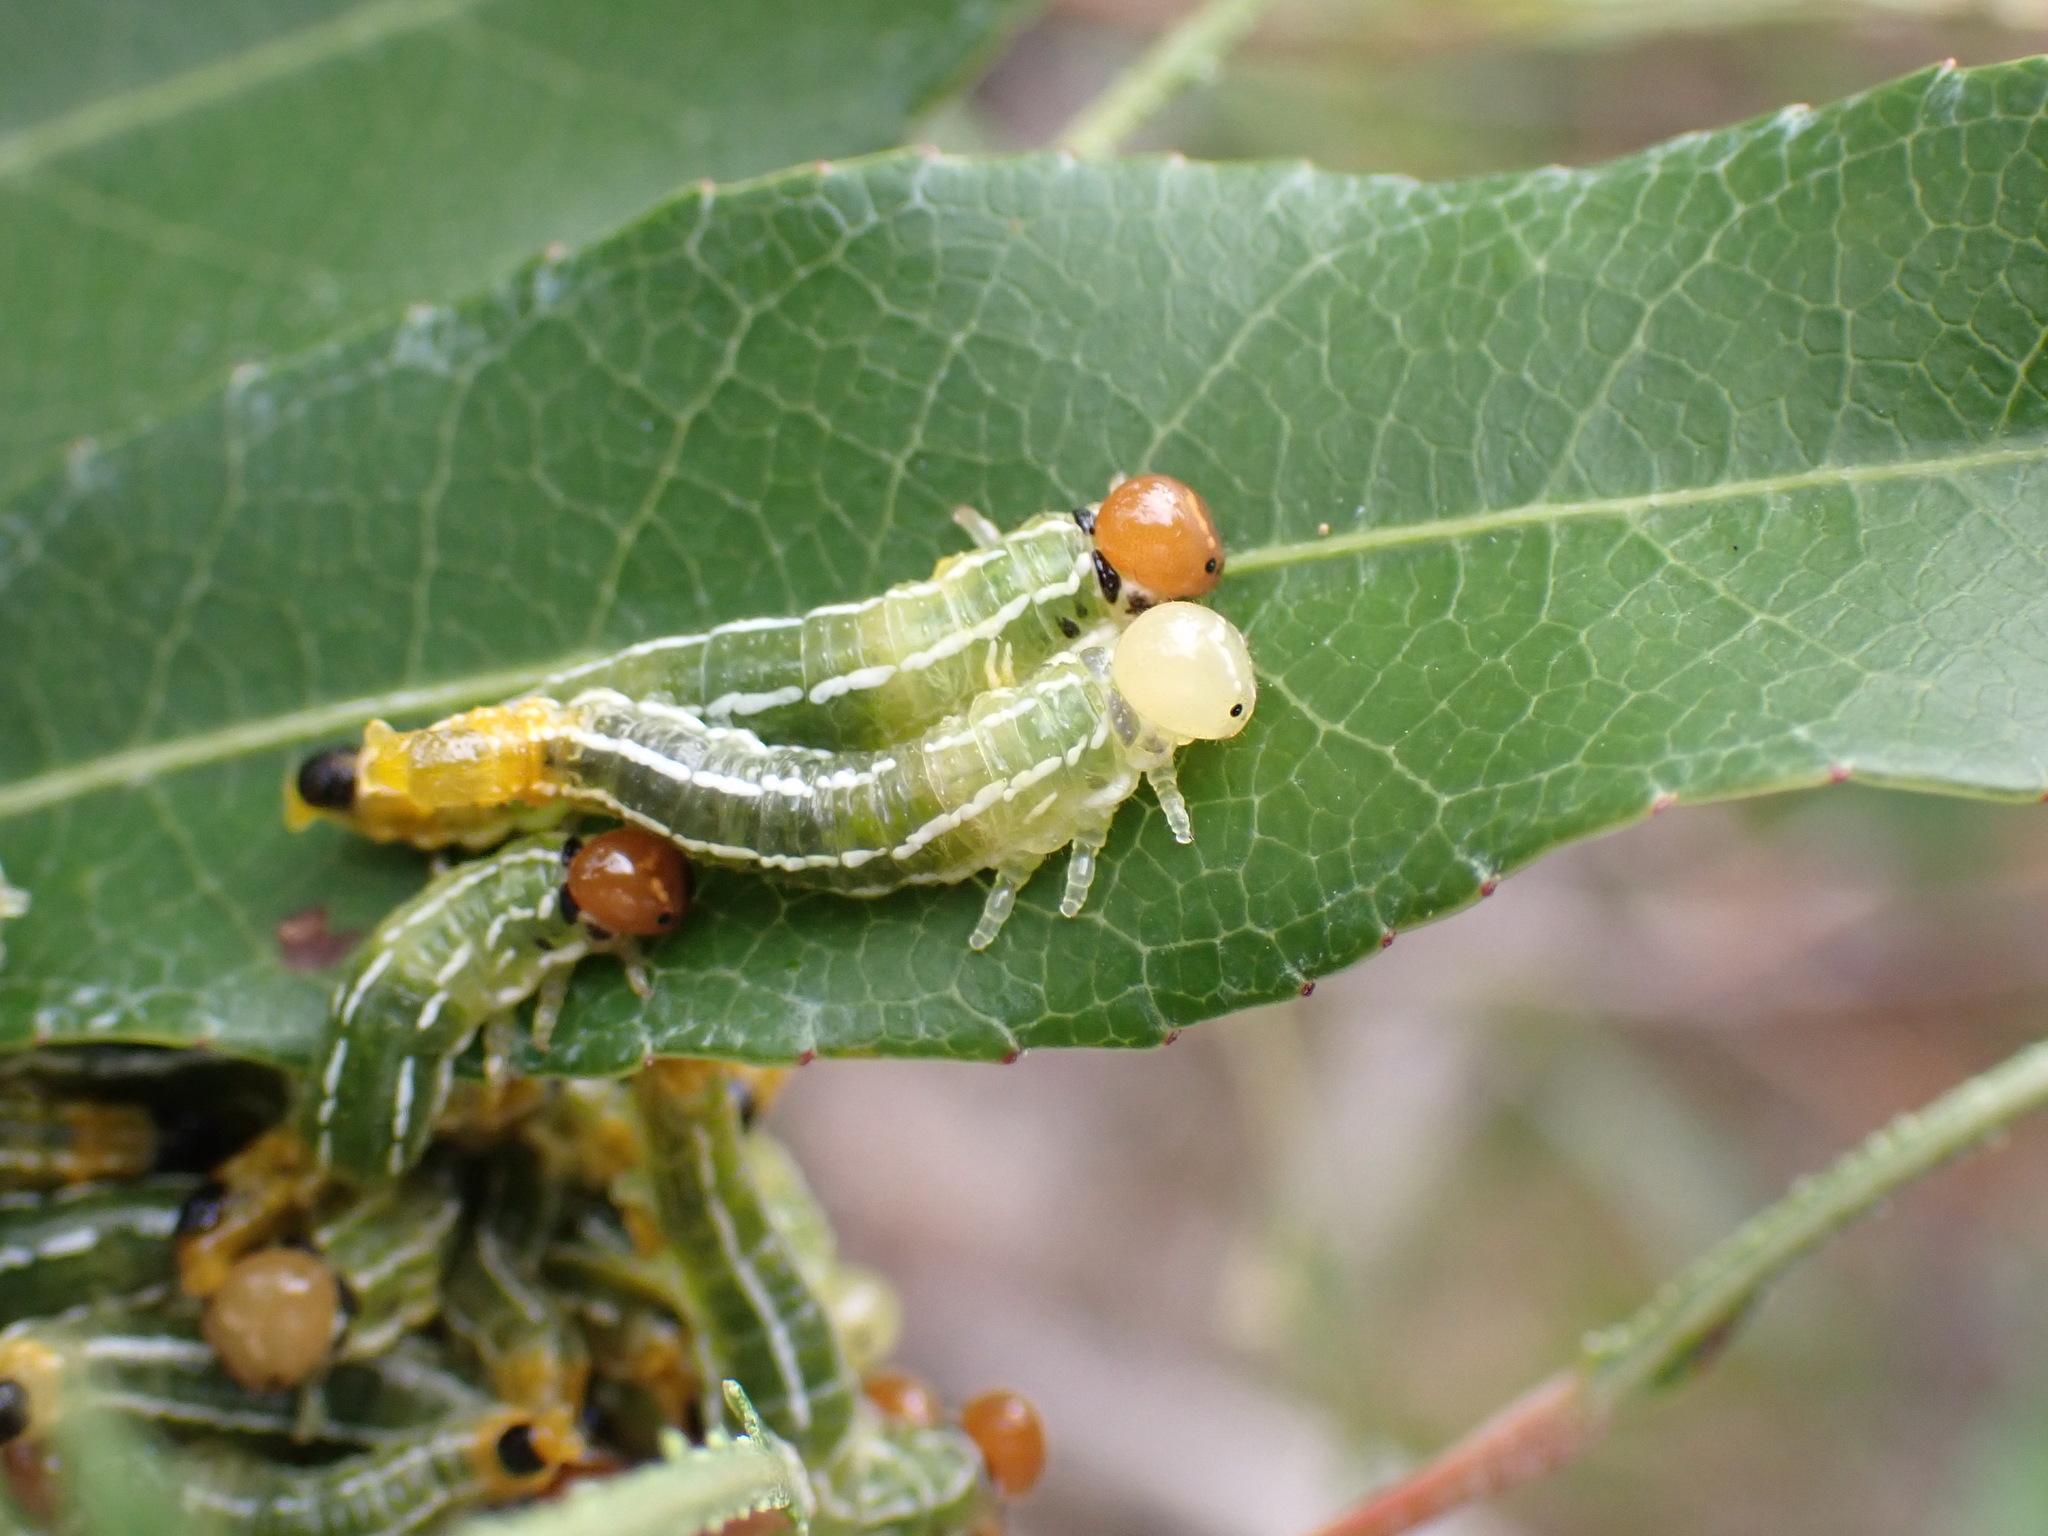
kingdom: Animalia
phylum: Arthropoda
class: Insecta
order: Hymenoptera
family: Pergidae
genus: Pteryperga
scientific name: Pteryperga galla
